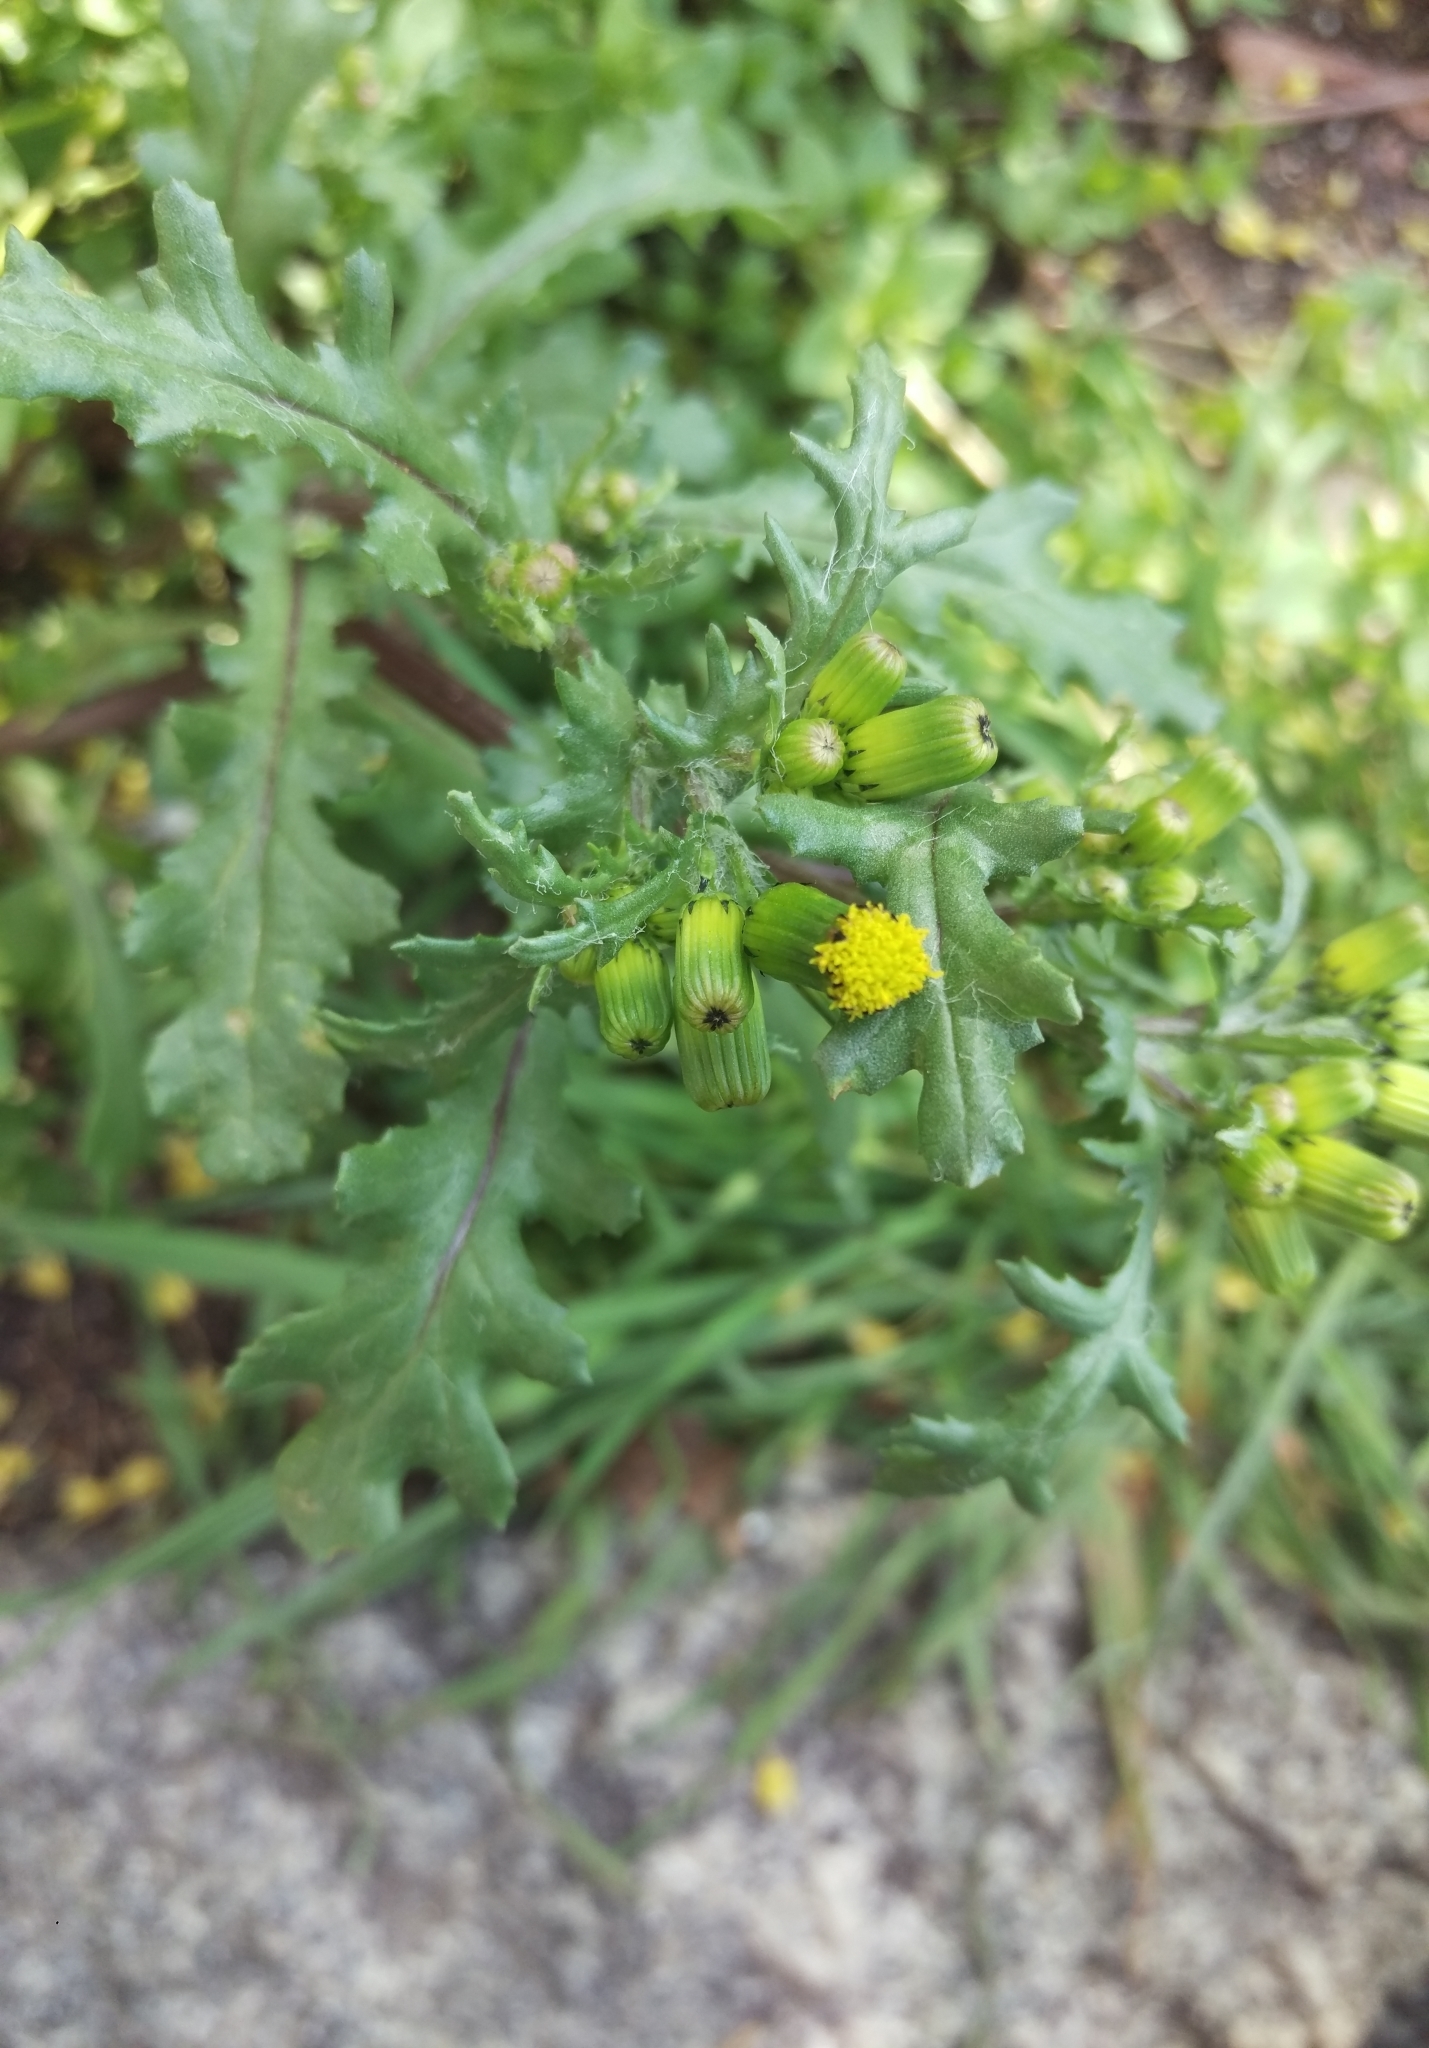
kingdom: Plantae
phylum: Tracheophyta
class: Magnoliopsida
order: Asterales
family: Asteraceae
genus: Senecio
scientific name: Senecio vulgaris
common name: Old-man-in-the-spring
